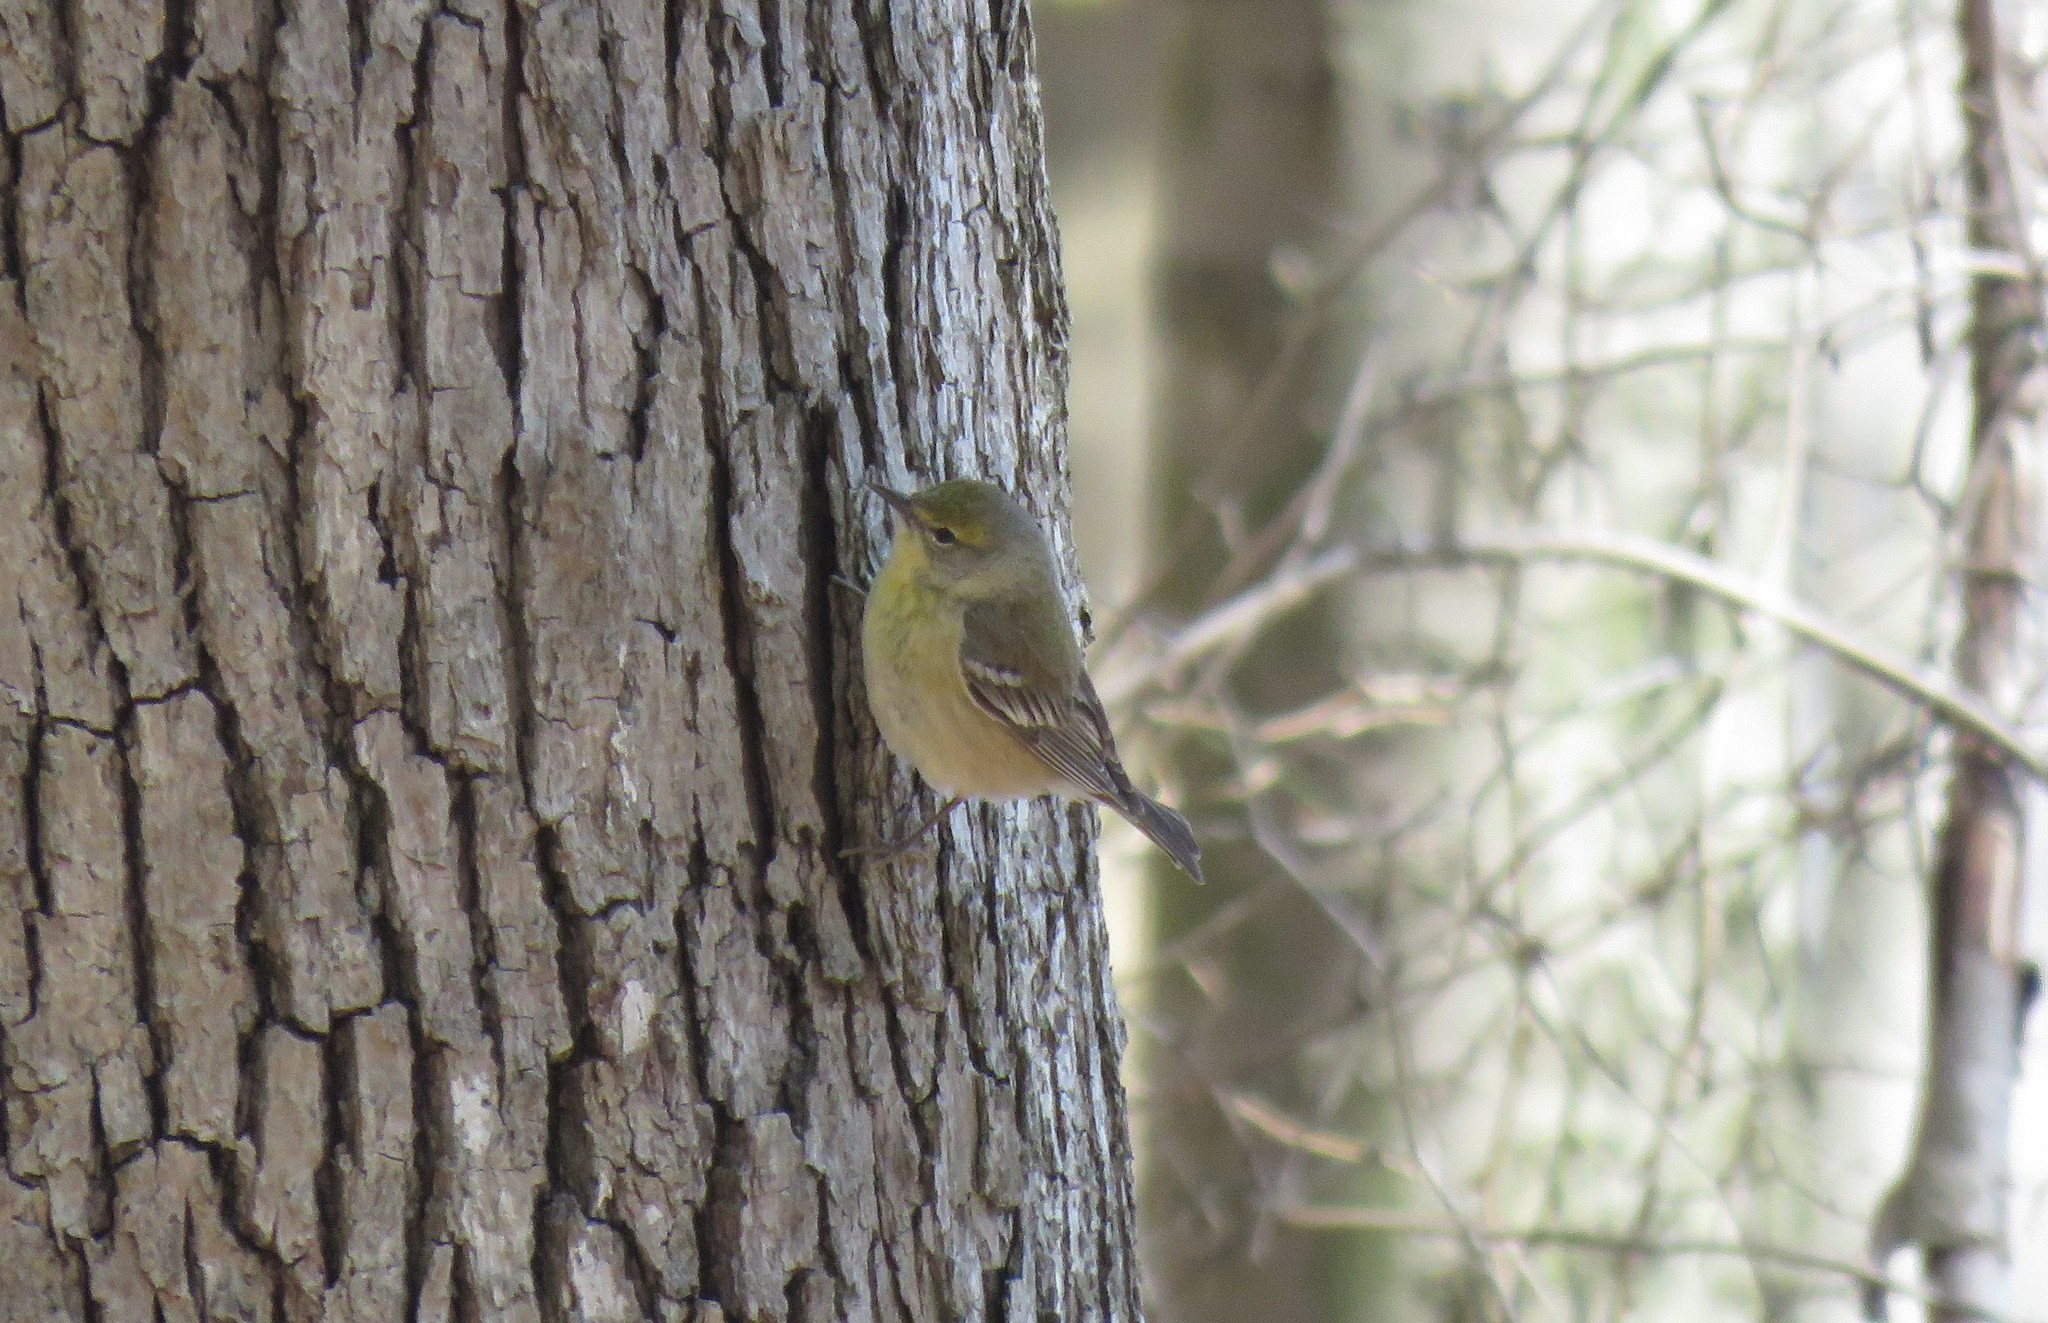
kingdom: Animalia
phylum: Chordata
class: Aves
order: Passeriformes
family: Parulidae
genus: Setophaga
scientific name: Setophaga pinus
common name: Pine warbler
